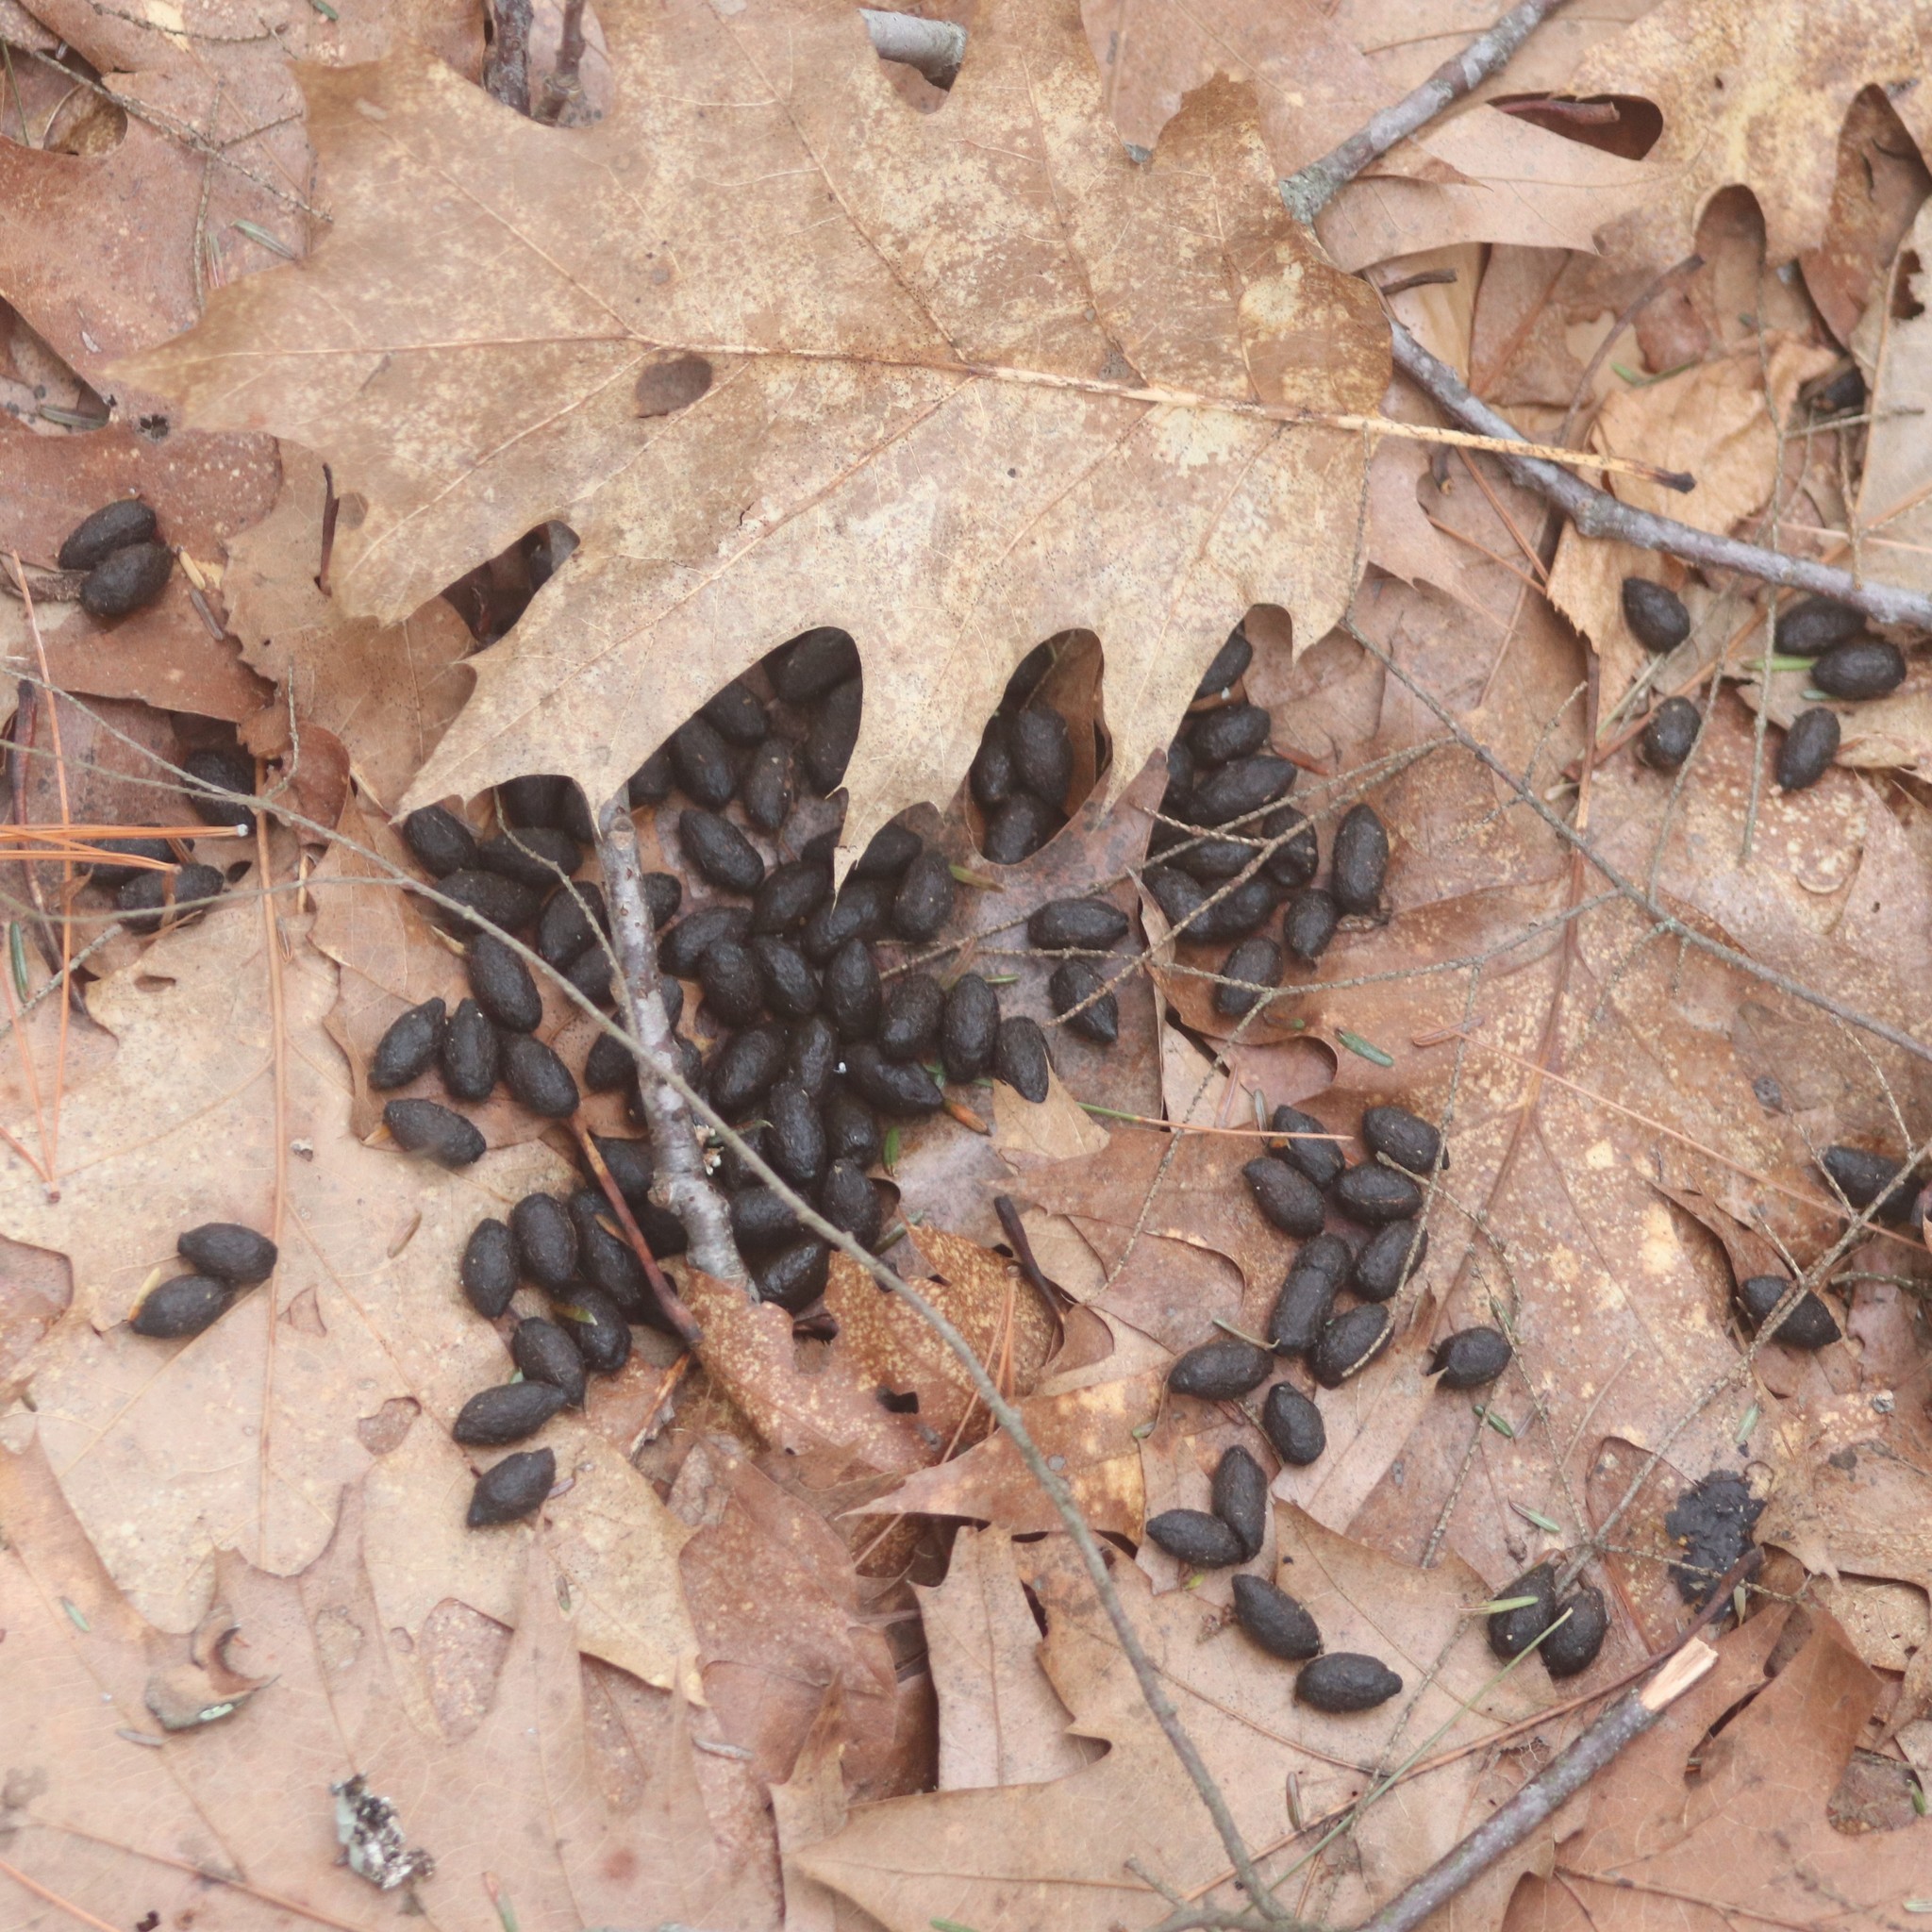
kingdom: Animalia
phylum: Chordata
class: Mammalia
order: Artiodactyla
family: Cervidae
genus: Odocoileus
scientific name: Odocoileus virginianus
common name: White-tailed deer
